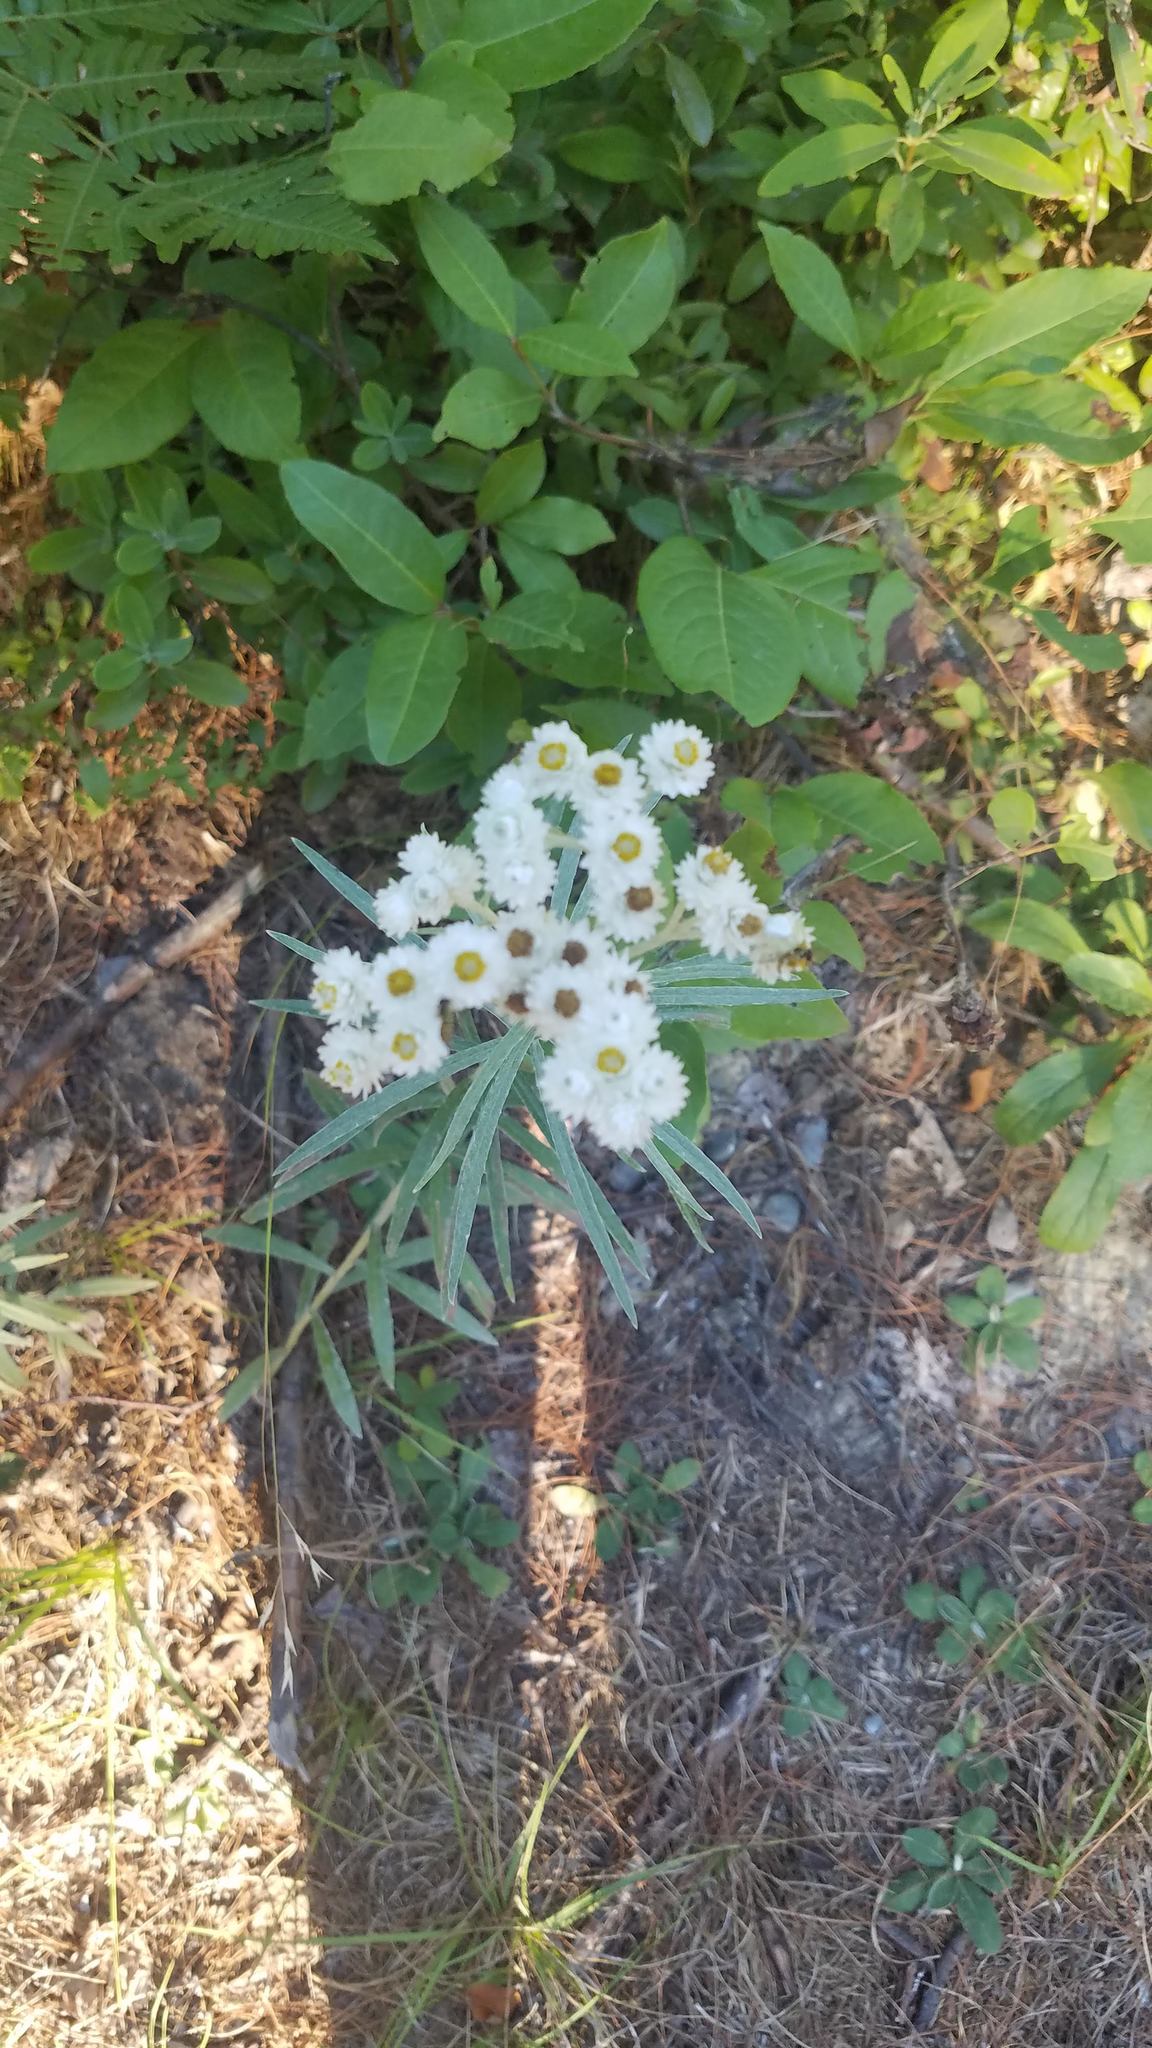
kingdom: Plantae
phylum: Tracheophyta
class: Magnoliopsida
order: Asterales
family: Asteraceae
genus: Anaphalis
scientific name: Anaphalis margaritacea
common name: Pearly everlasting
